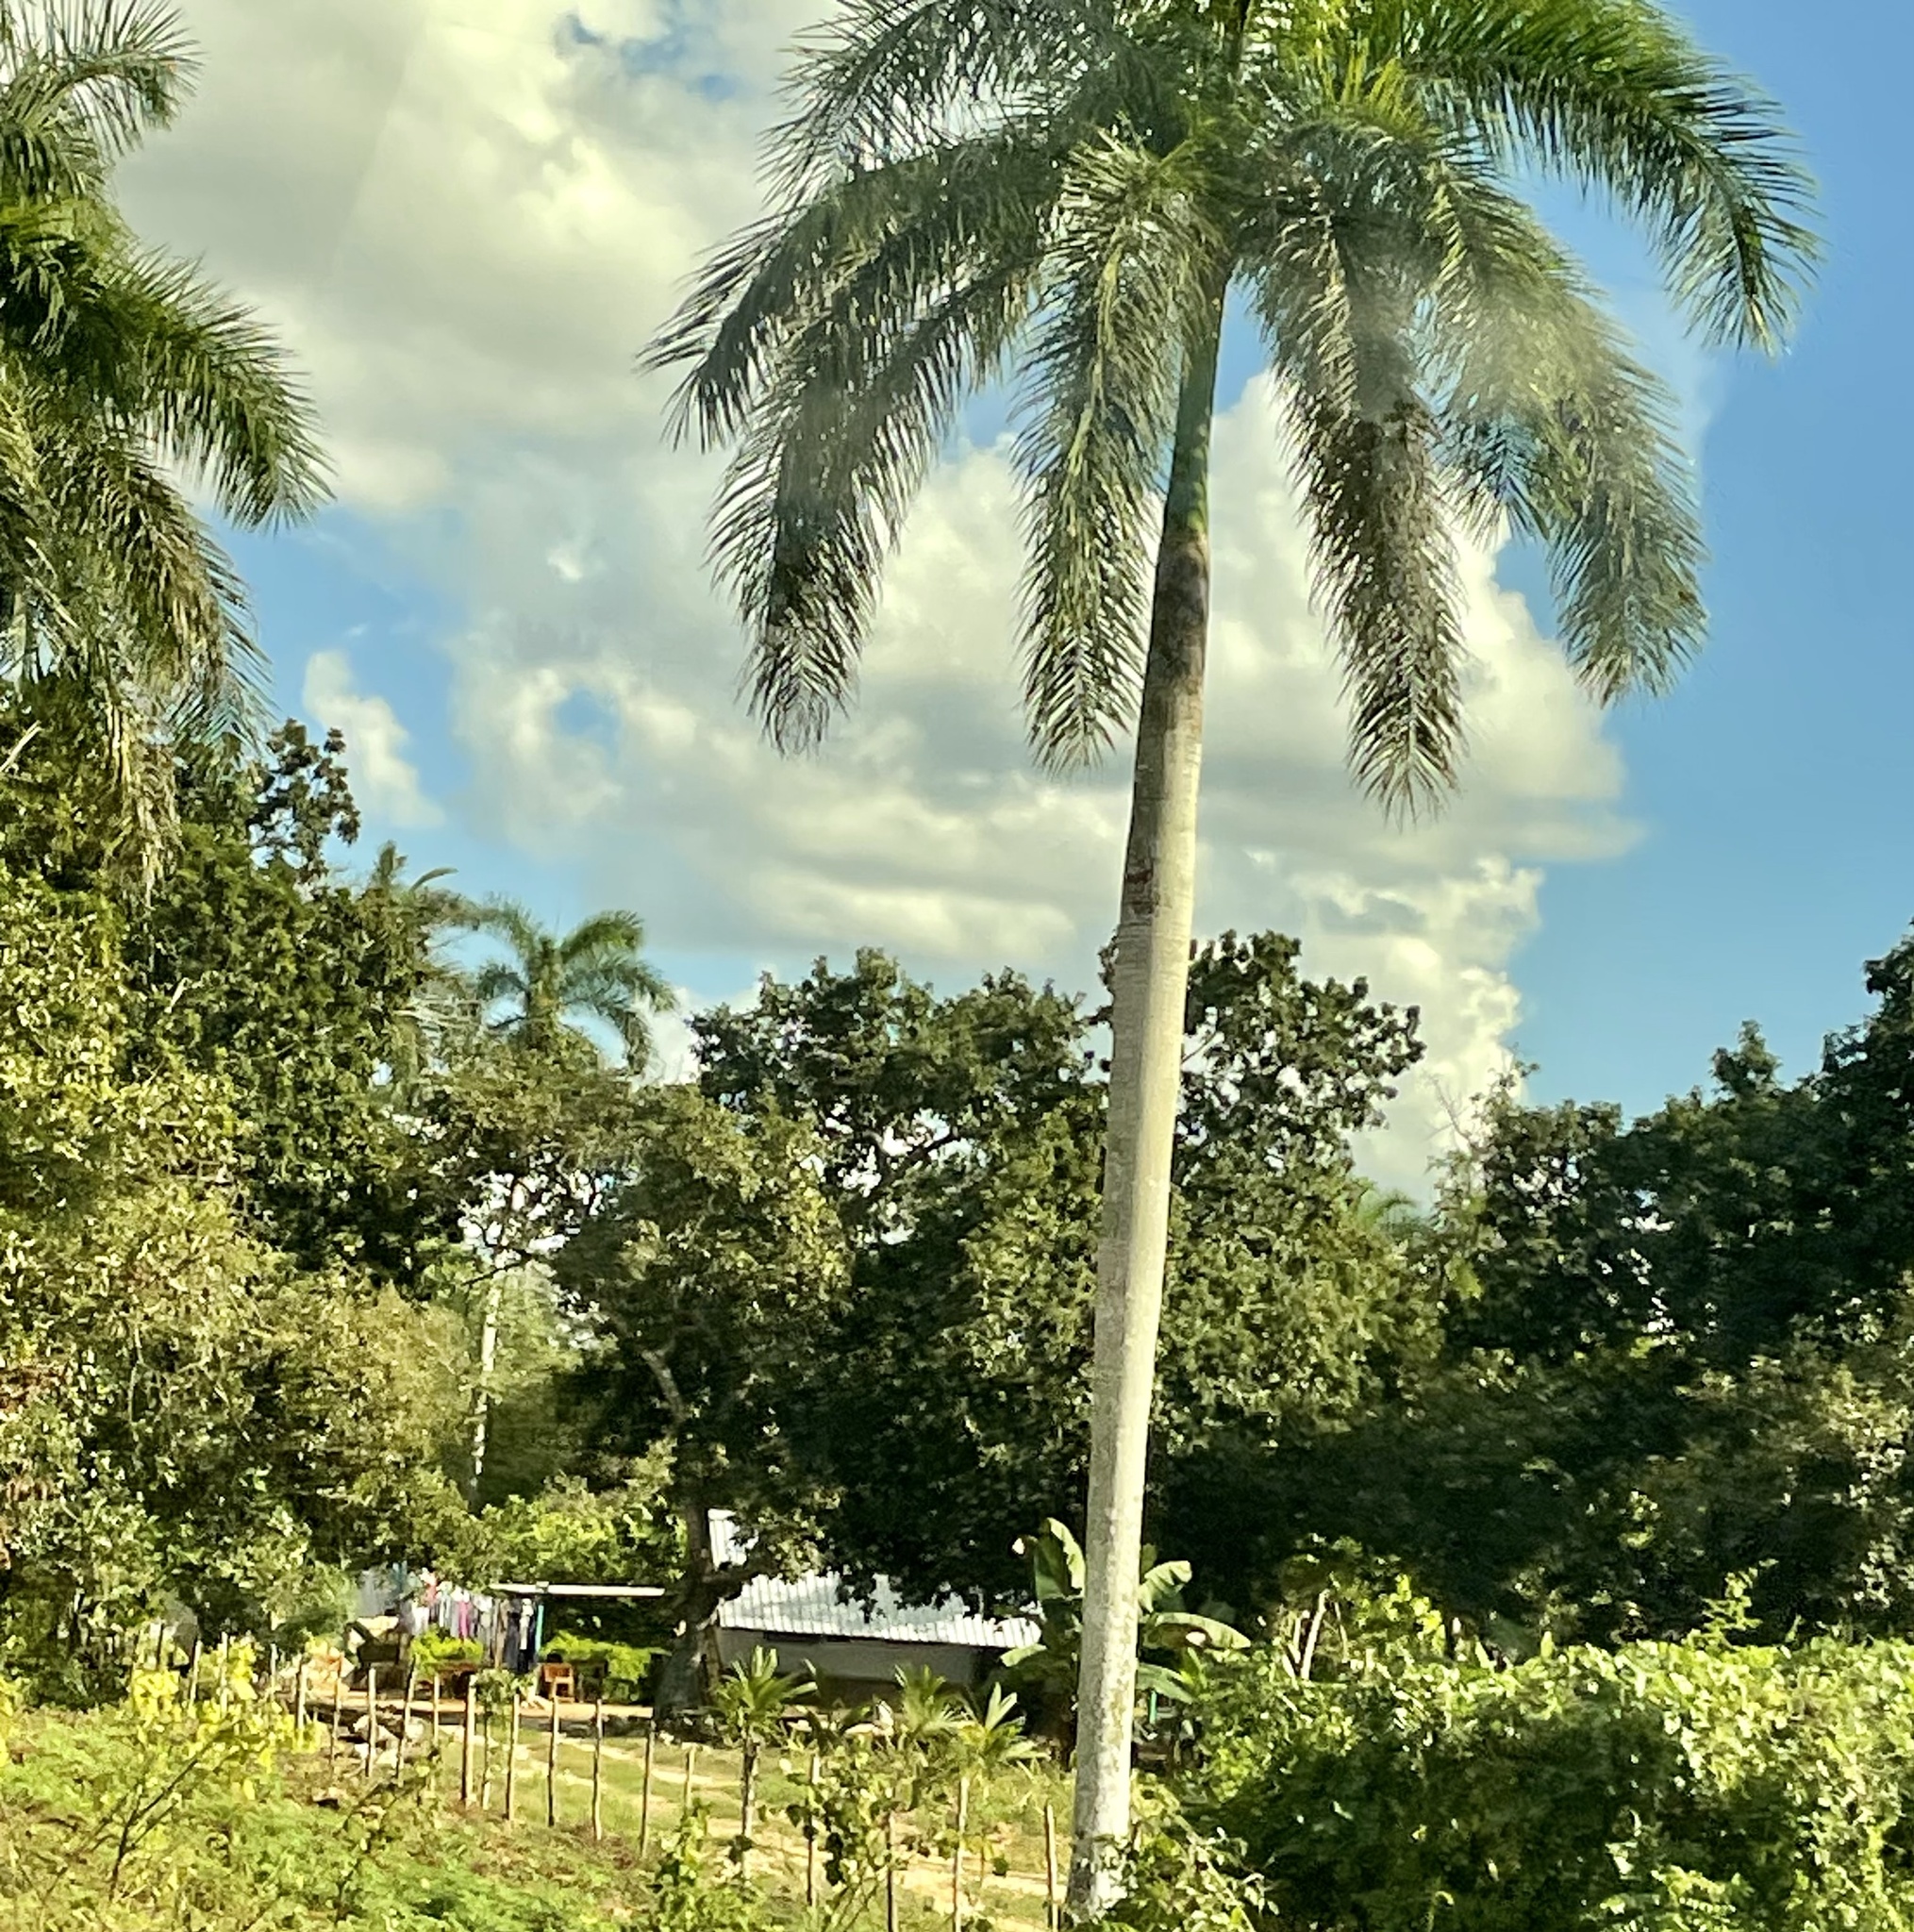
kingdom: Plantae
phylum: Tracheophyta
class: Liliopsida
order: Arecales
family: Arecaceae
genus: Roystonea
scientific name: Roystonea regia
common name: Florida royal palm
